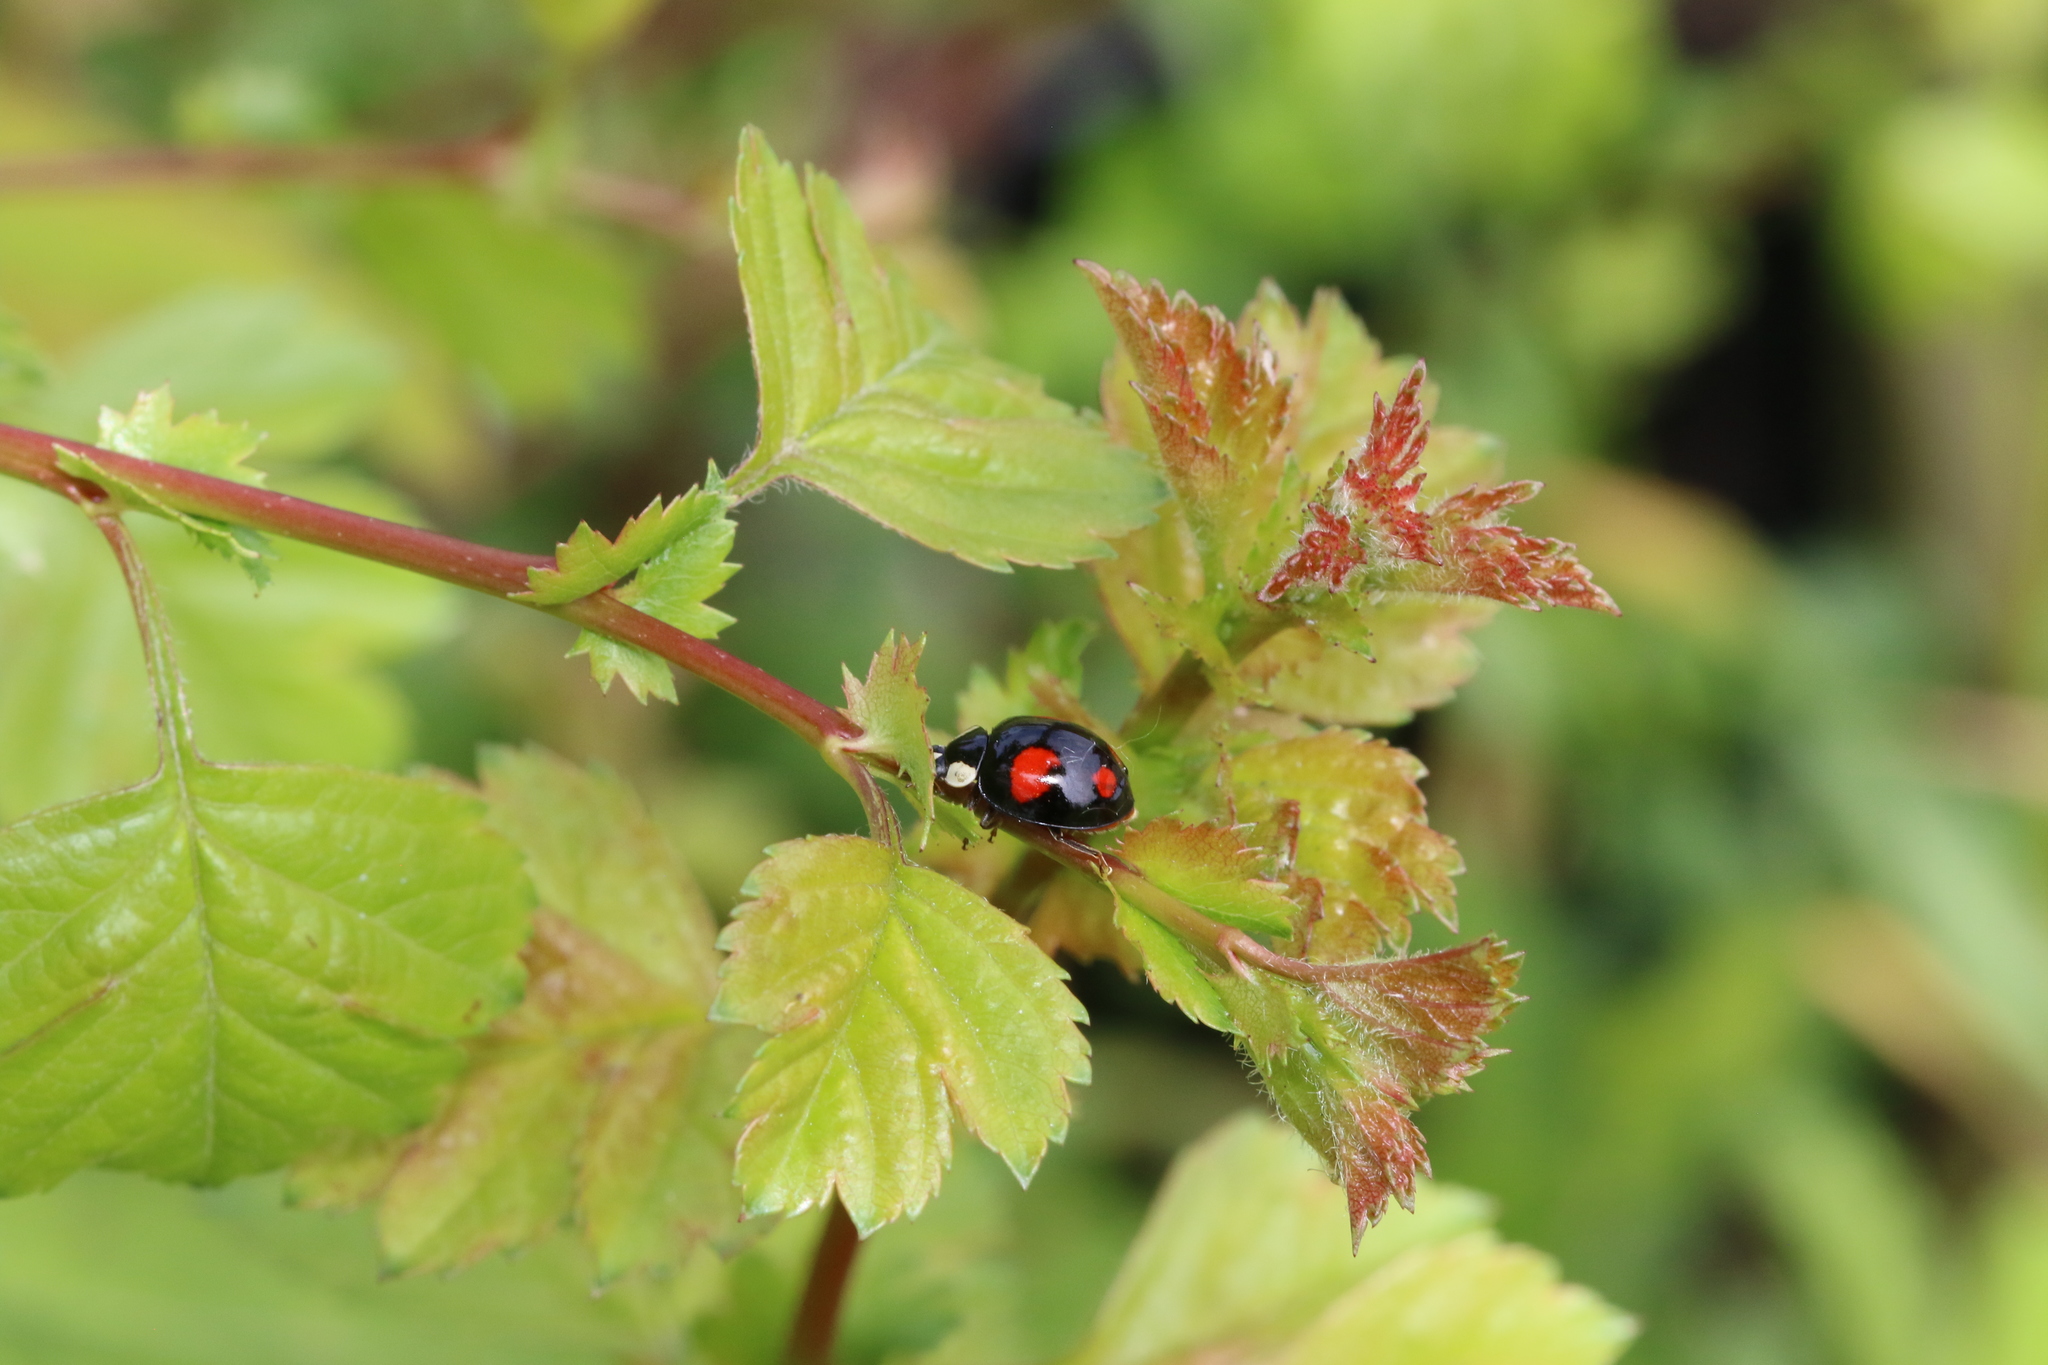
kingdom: Animalia
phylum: Arthropoda
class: Insecta
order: Coleoptera
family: Coccinellidae
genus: Harmonia
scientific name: Harmonia axyridis
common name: Harlequin ladybird
